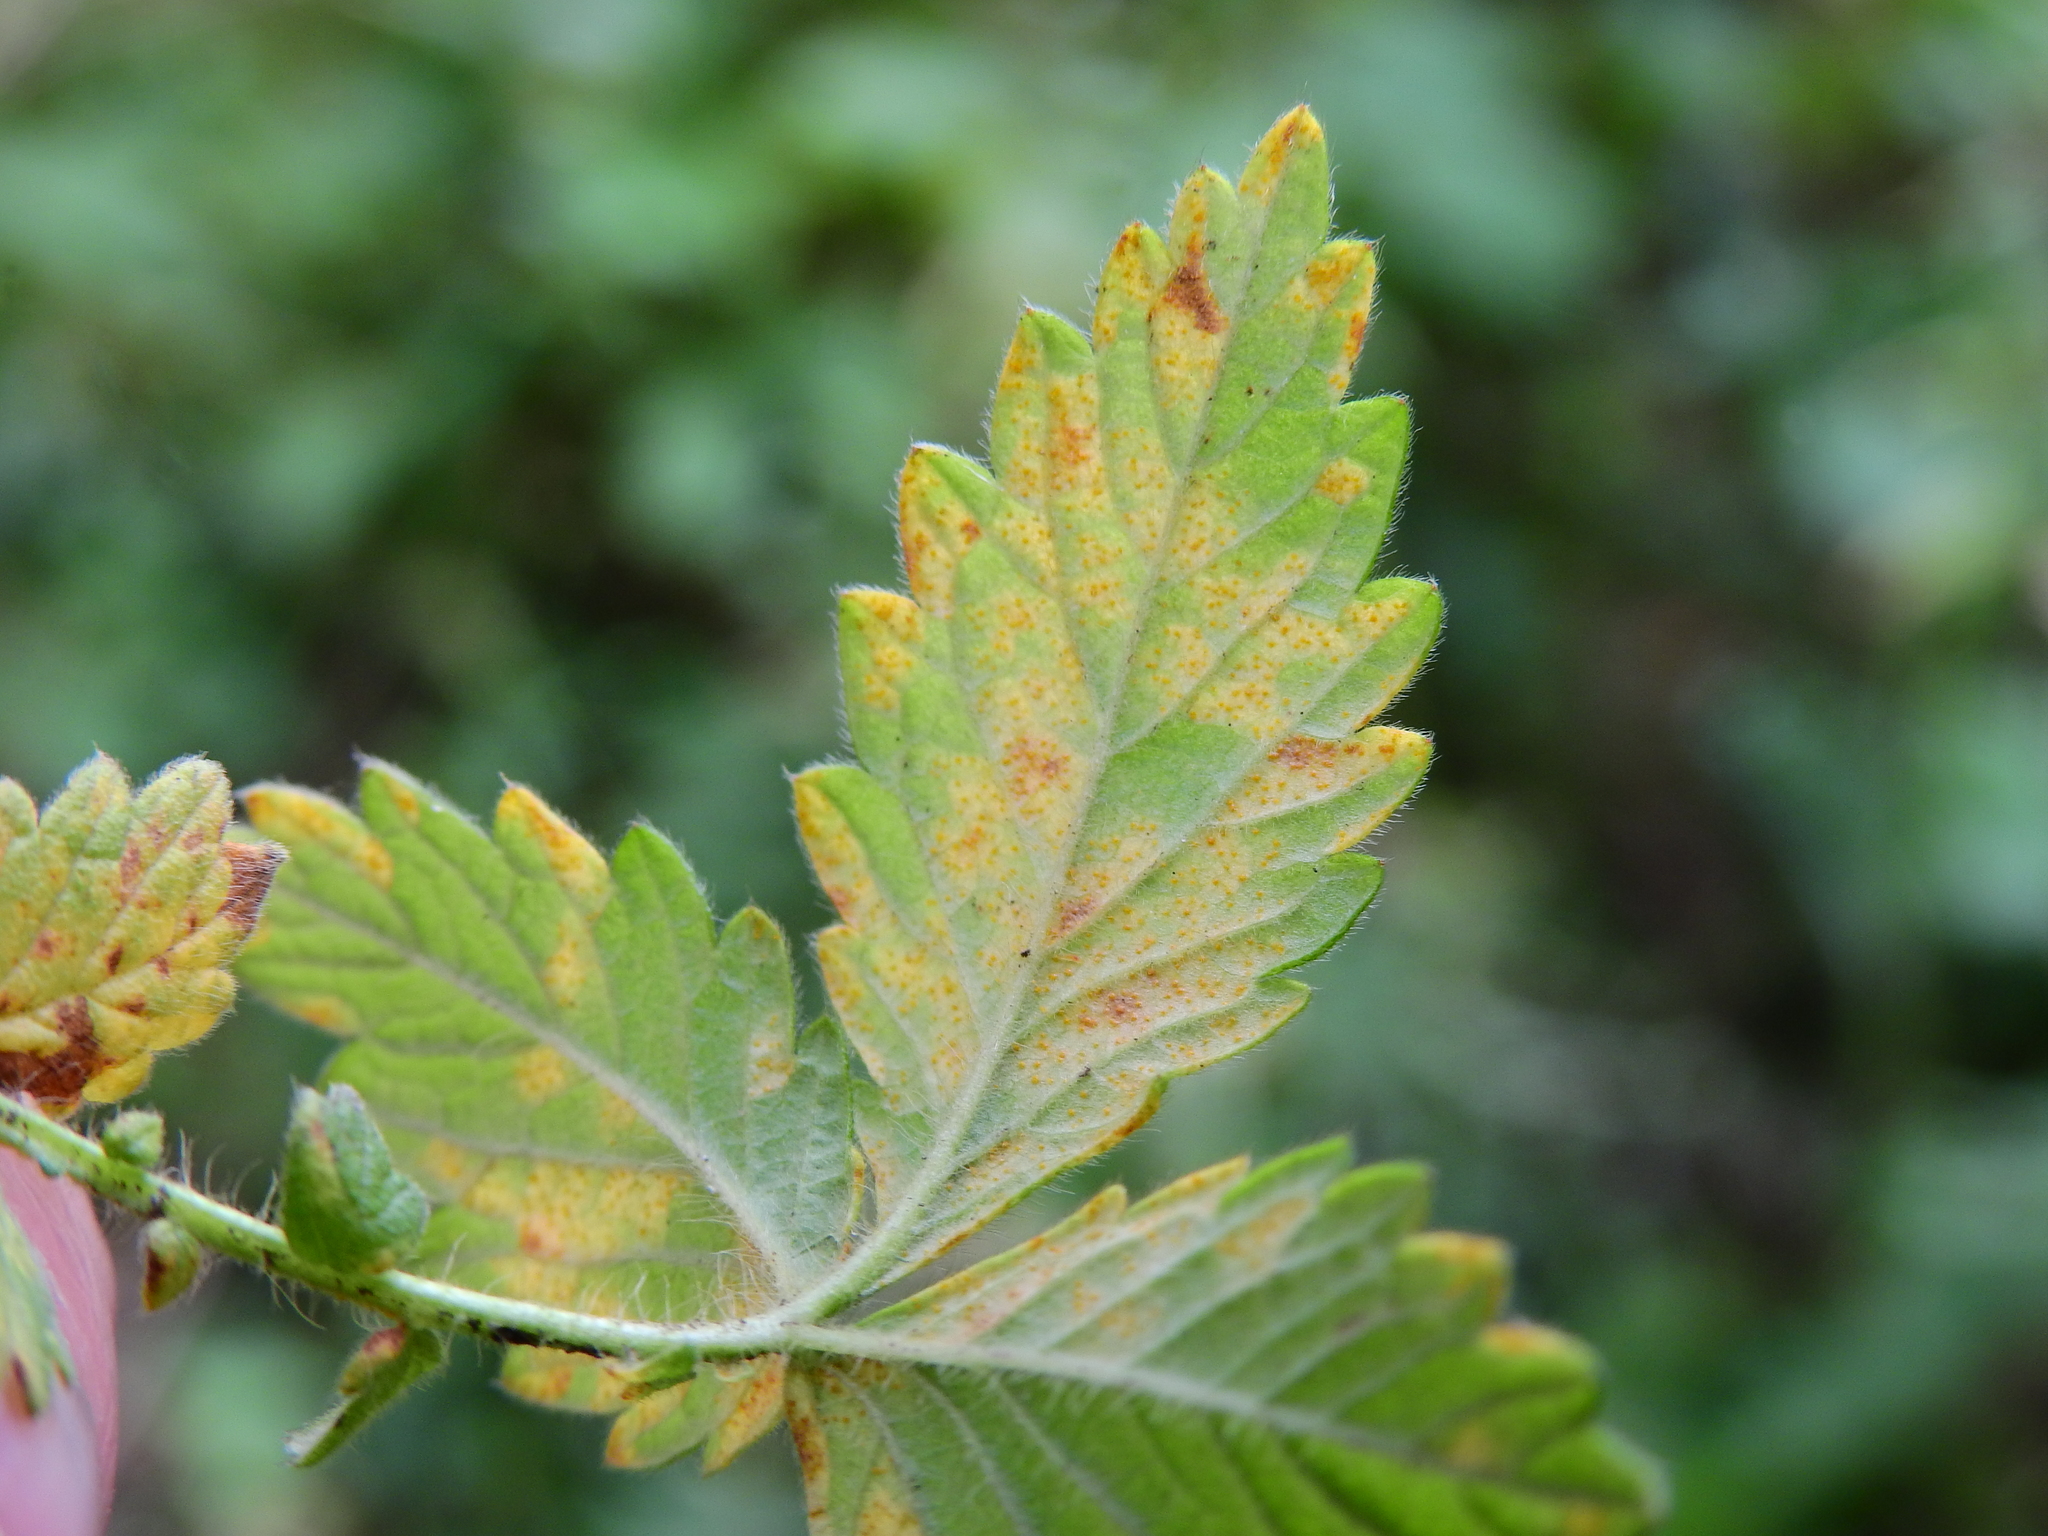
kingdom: Fungi
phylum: Basidiomycota
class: Pucciniomycetes
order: Pucciniales
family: Cronartiaceae
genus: Quasipucciniastrum
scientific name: Quasipucciniastrum ochraceum
